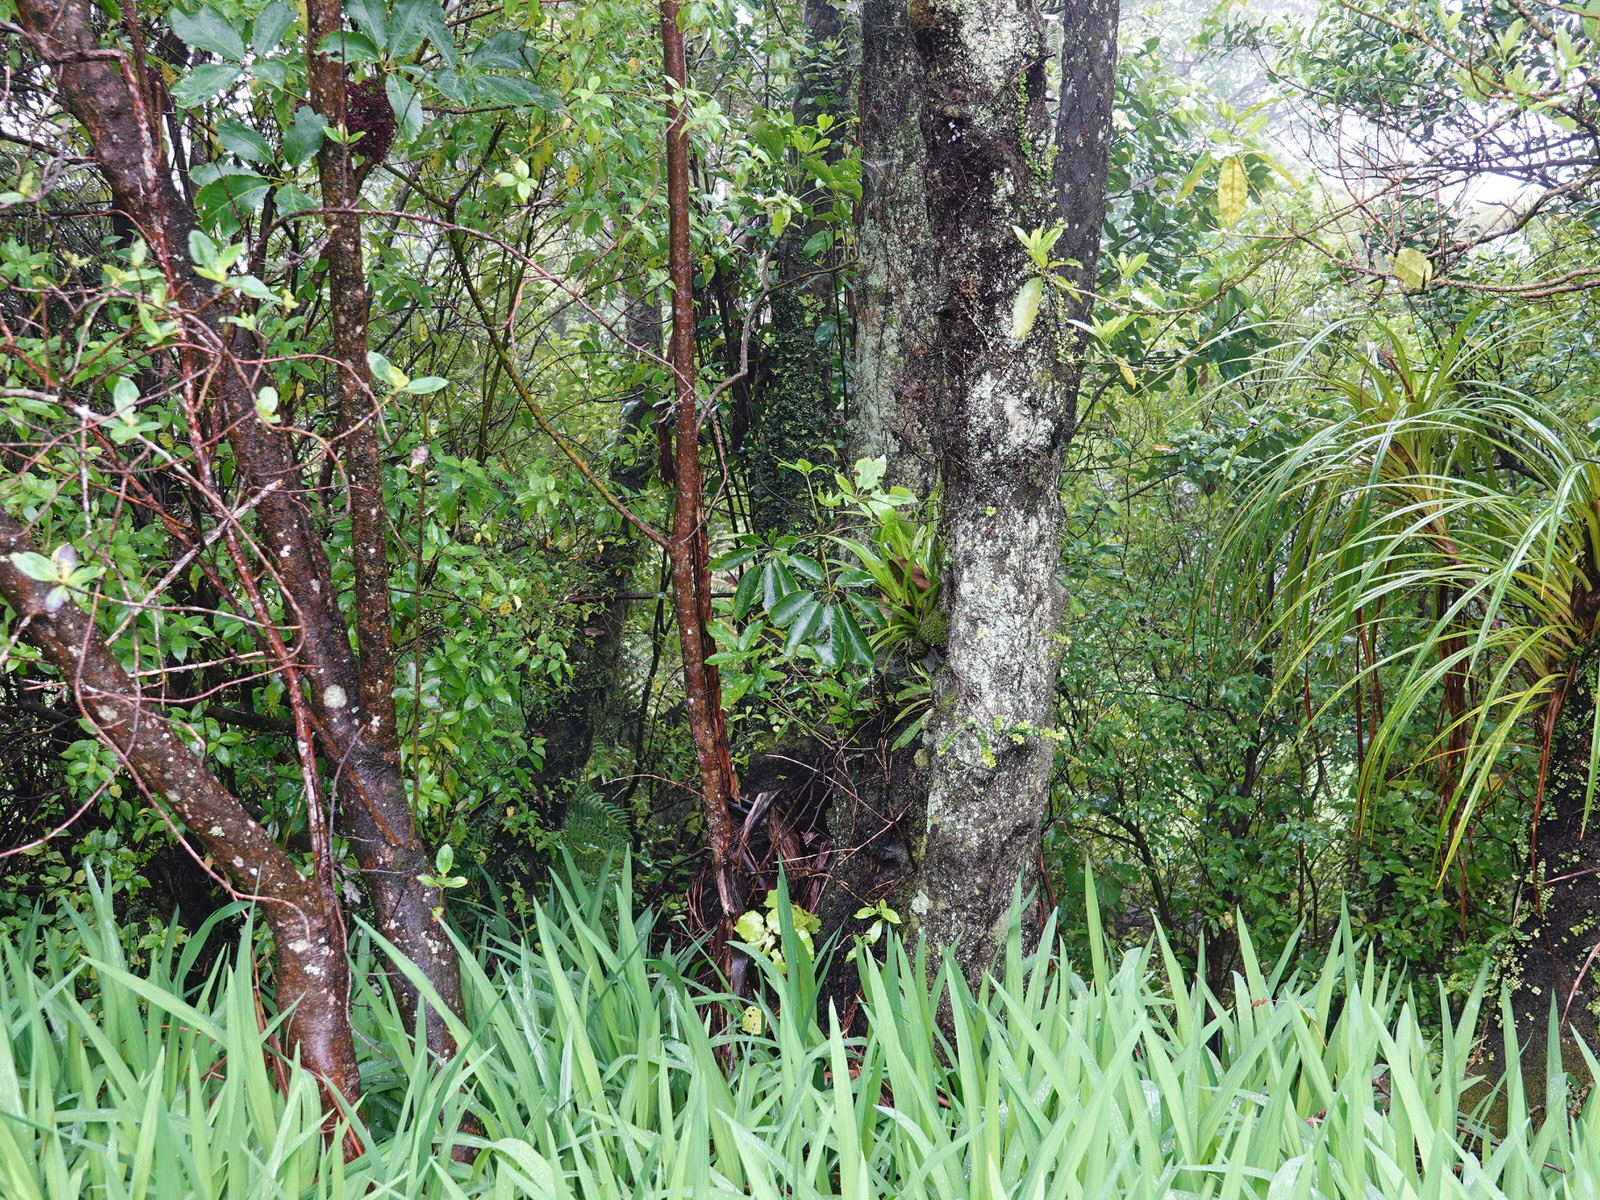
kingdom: Plantae
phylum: Tracheophyta
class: Magnoliopsida
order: Apiales
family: Araliaceae
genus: Neopanax
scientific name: Neopanax arboreus
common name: Five-fingers
